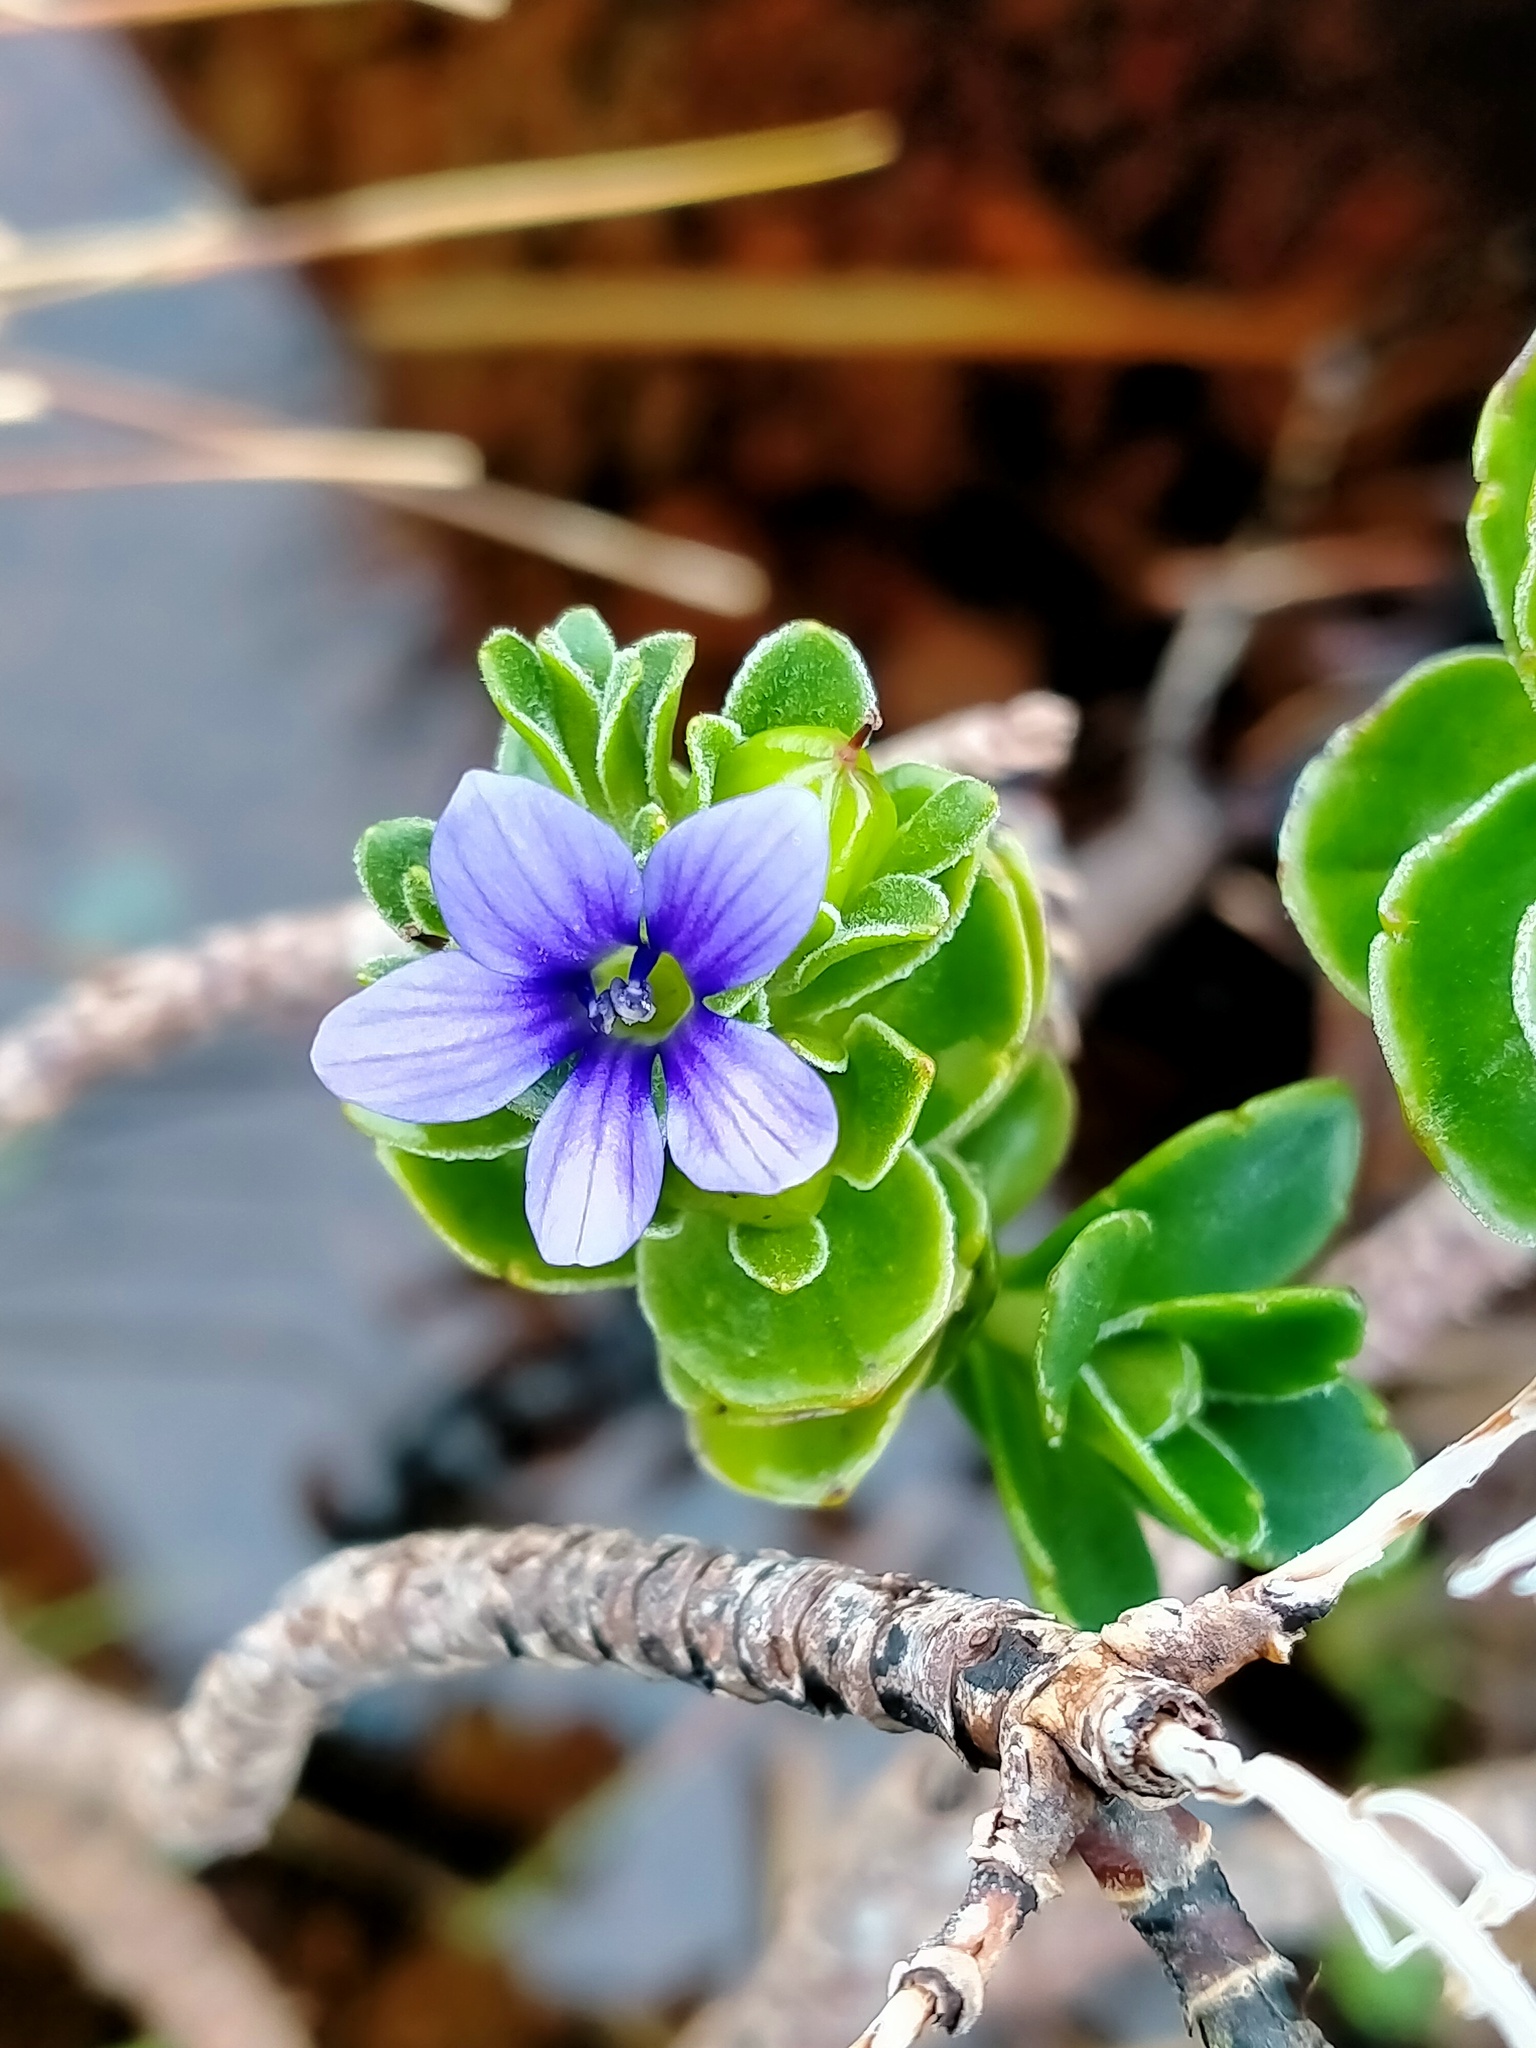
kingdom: Plantae
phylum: Tracheophyta
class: Magnoliopsida
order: Lamiales
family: Plantaginaceae
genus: Veronica
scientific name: Veronica benthamii
